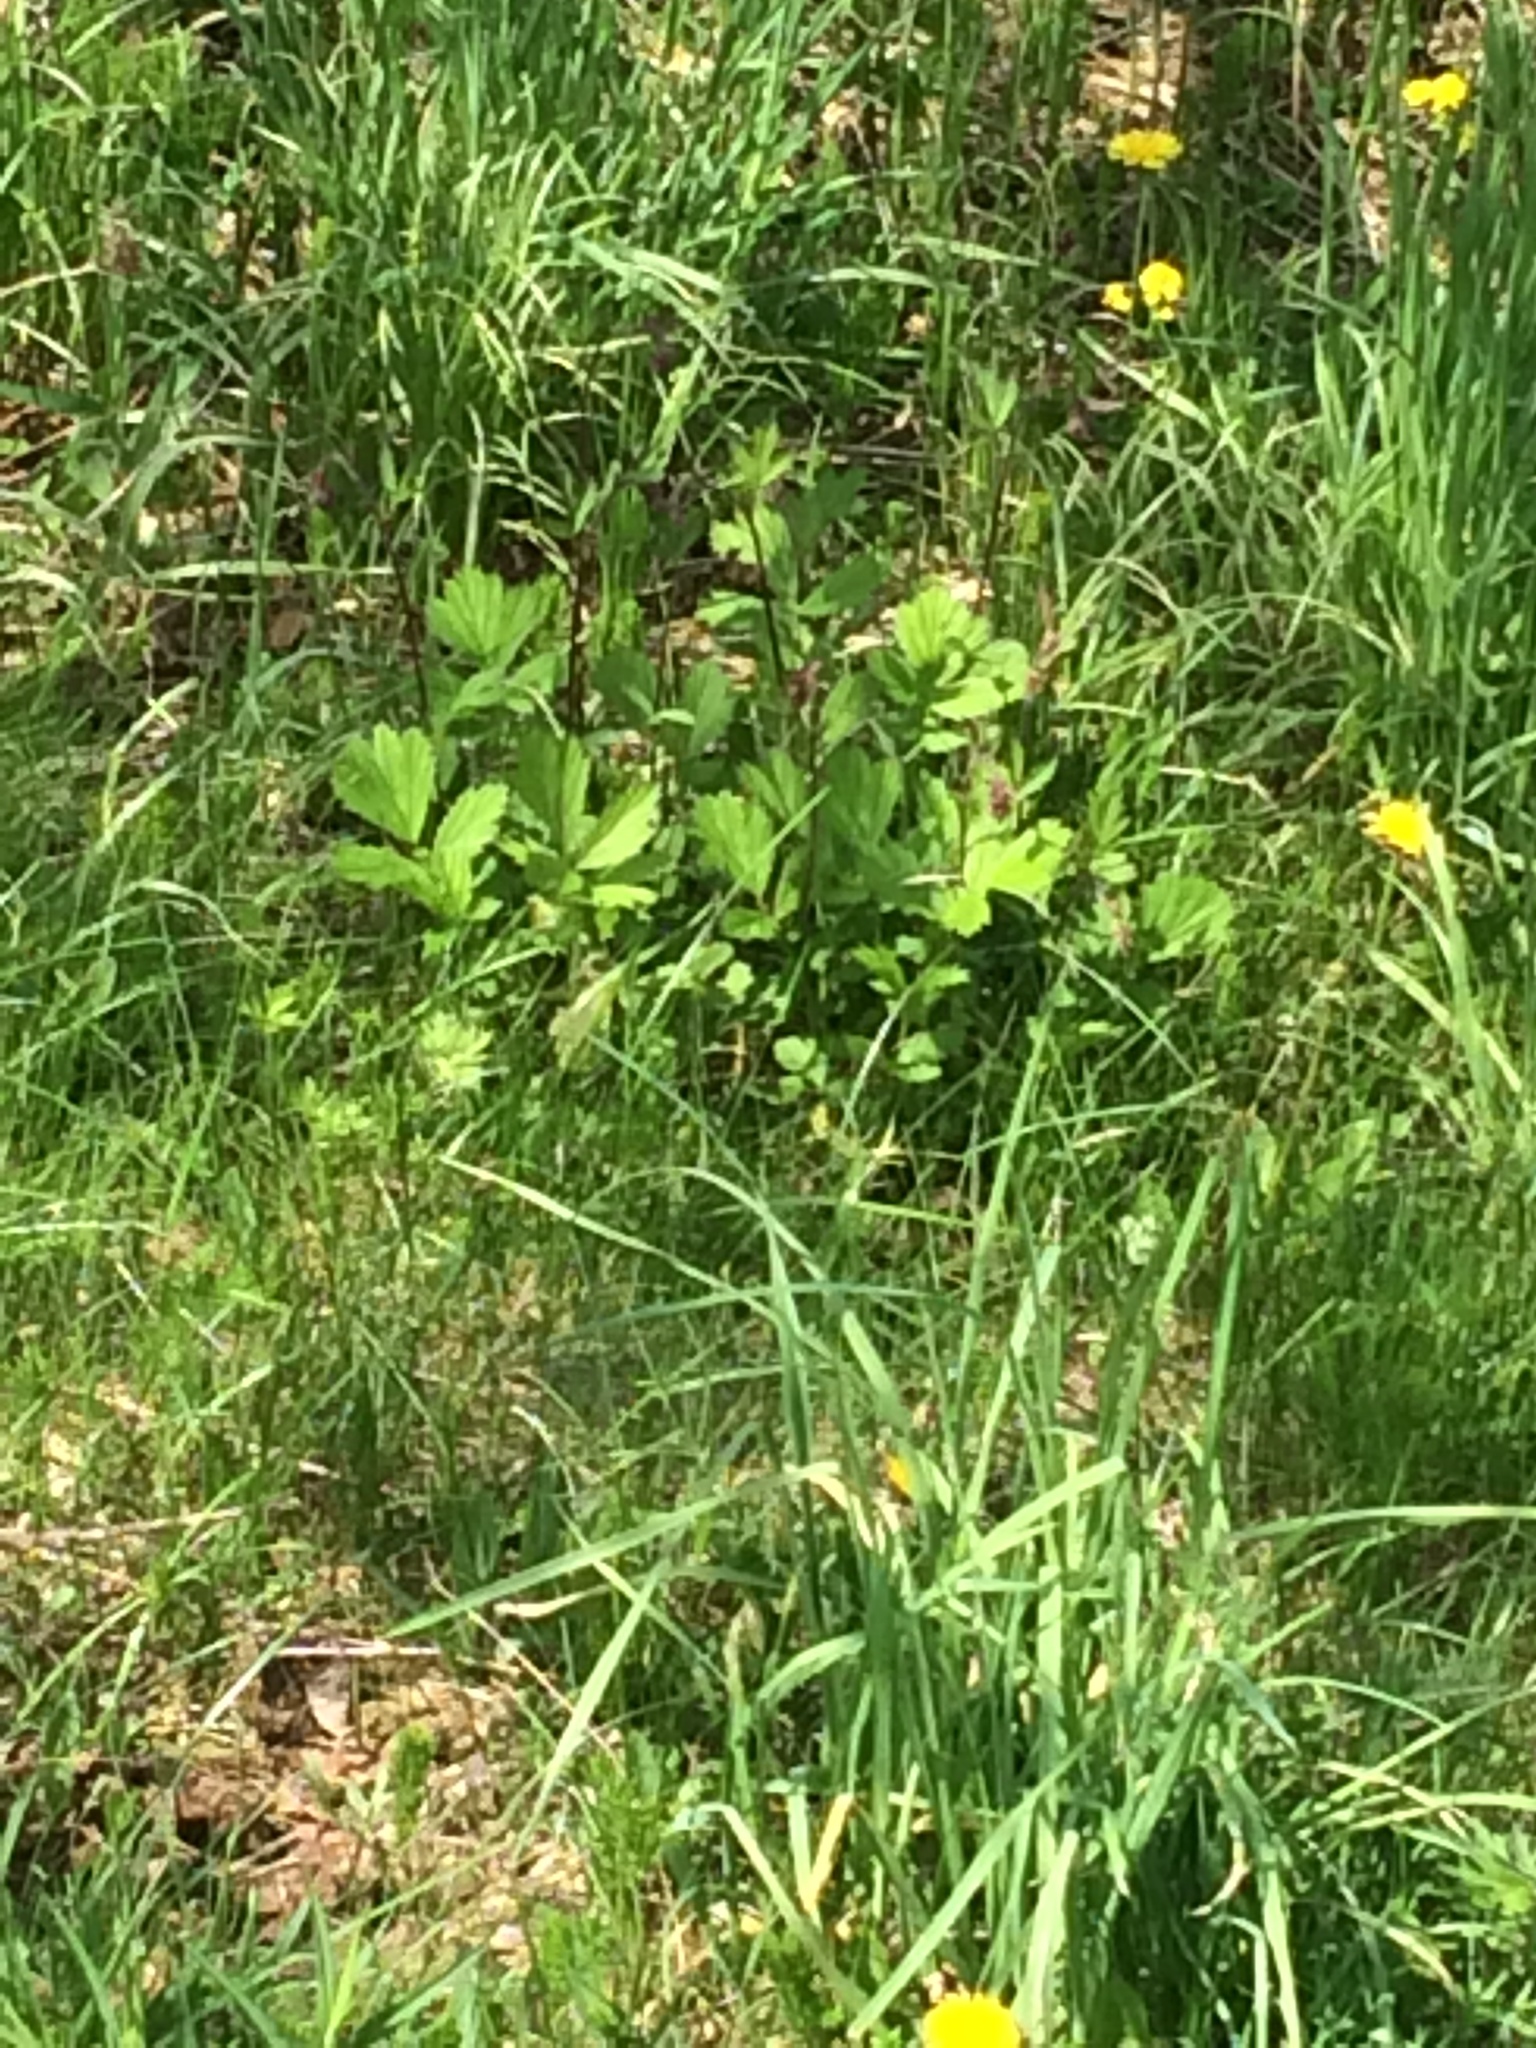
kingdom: Plantae
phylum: Tracheophyta
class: Magnoliopsida
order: Rosales
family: Rosaceae
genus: Geum
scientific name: Geum rivale
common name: Water avens
